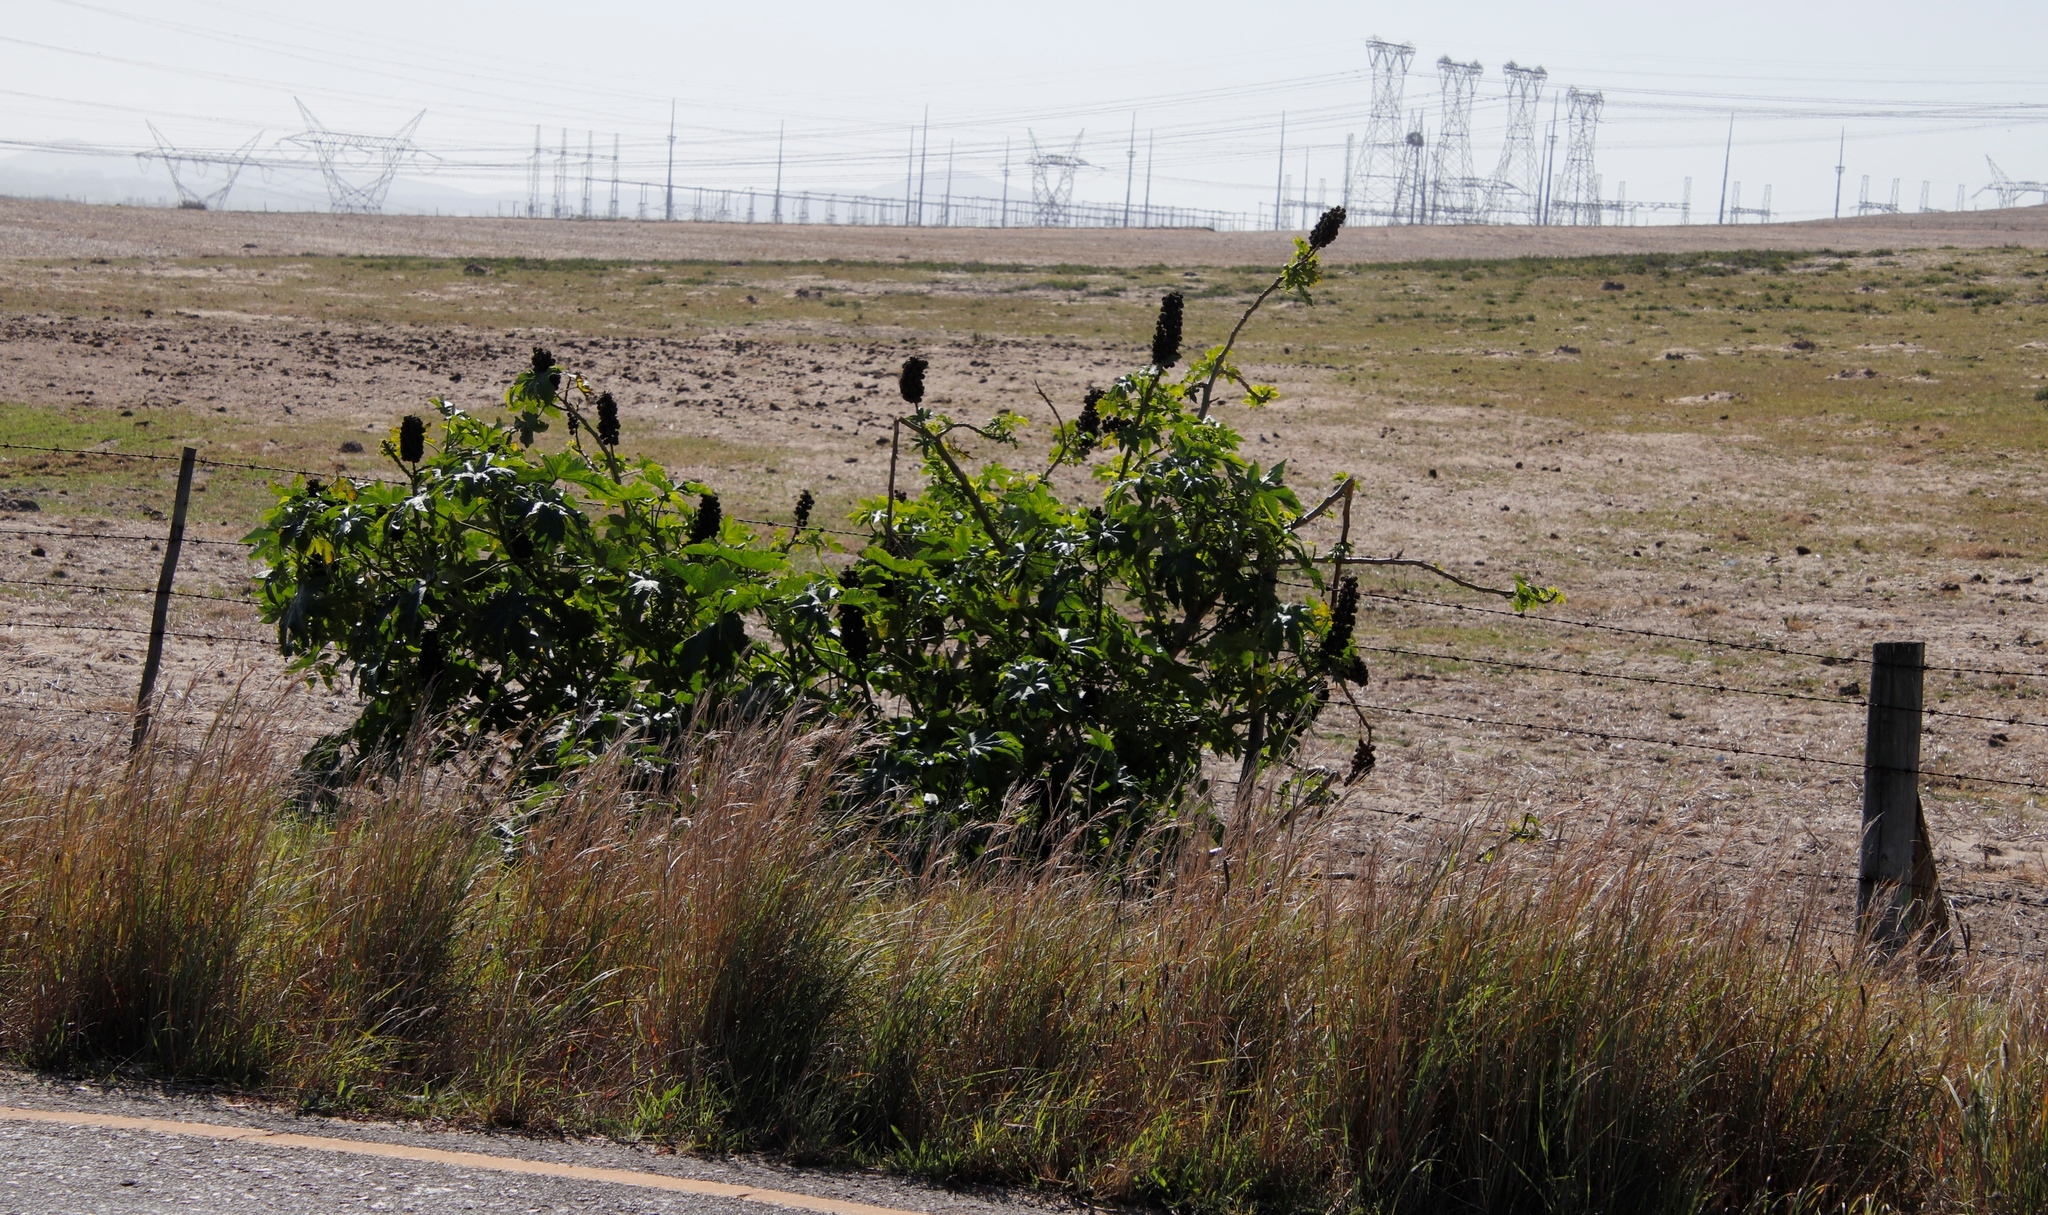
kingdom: Plantae
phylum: Tracheophyta
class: Magnoliopsida
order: Malpighiales
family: Euphorbiaceae
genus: Ricinus
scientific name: Ricinus communis
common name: Castor-oil-plant
